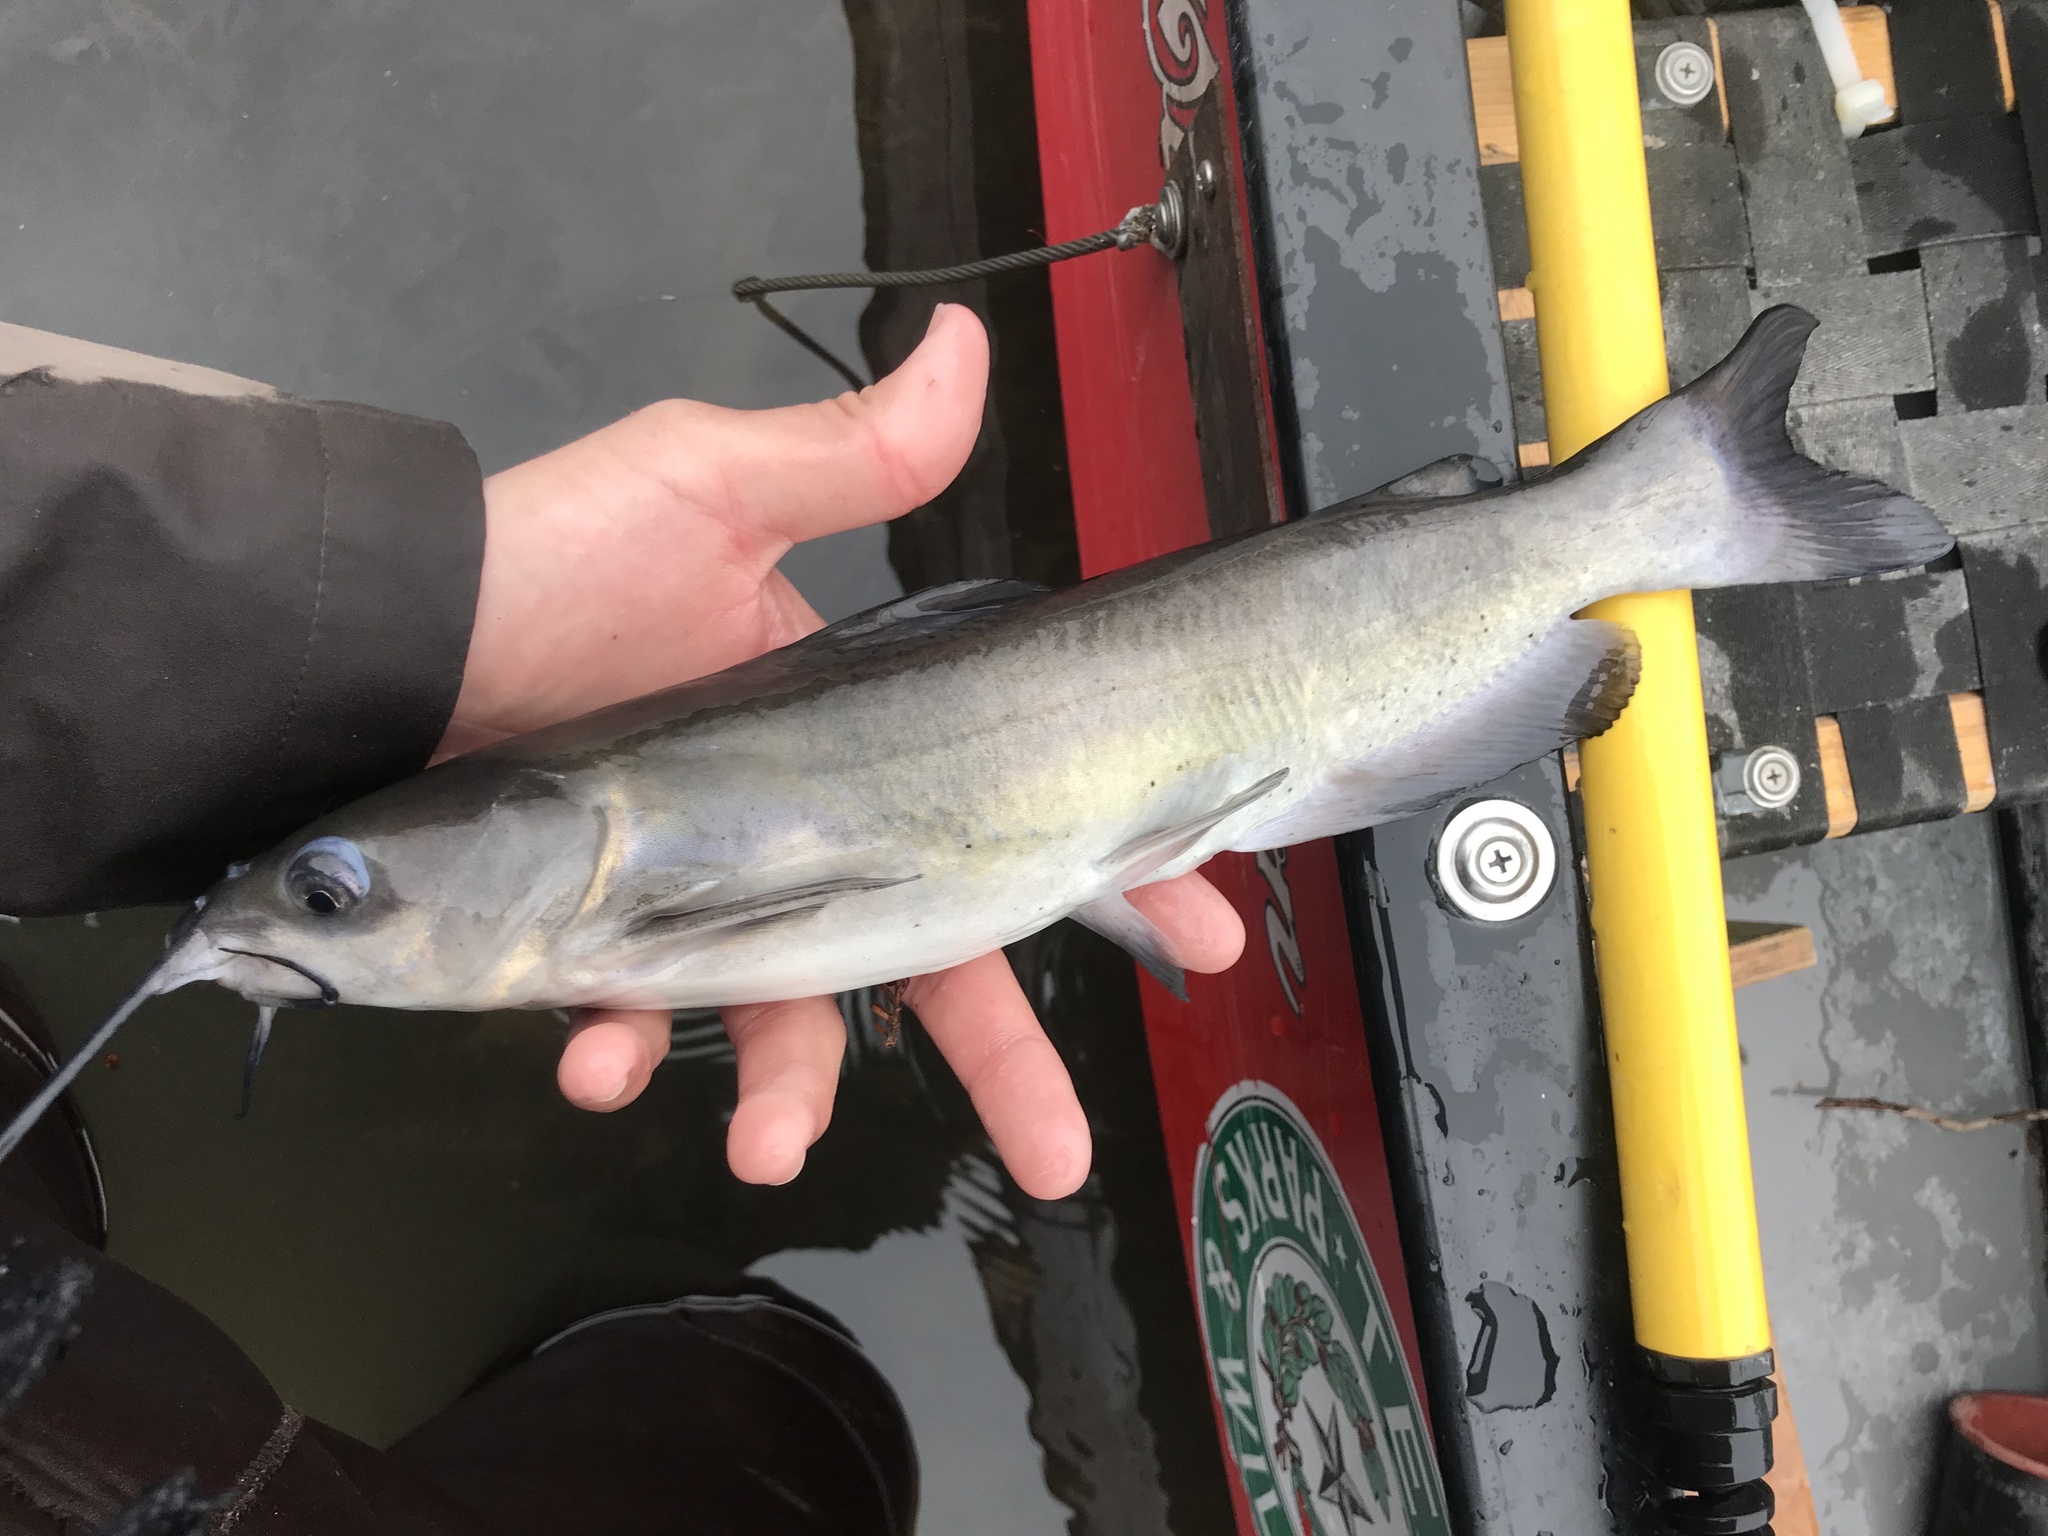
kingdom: Animalia
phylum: Chordata
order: Siluriformes
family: Ictaluridae
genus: Ictalurus
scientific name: Ictalurus punctatus
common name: Channel catfish
